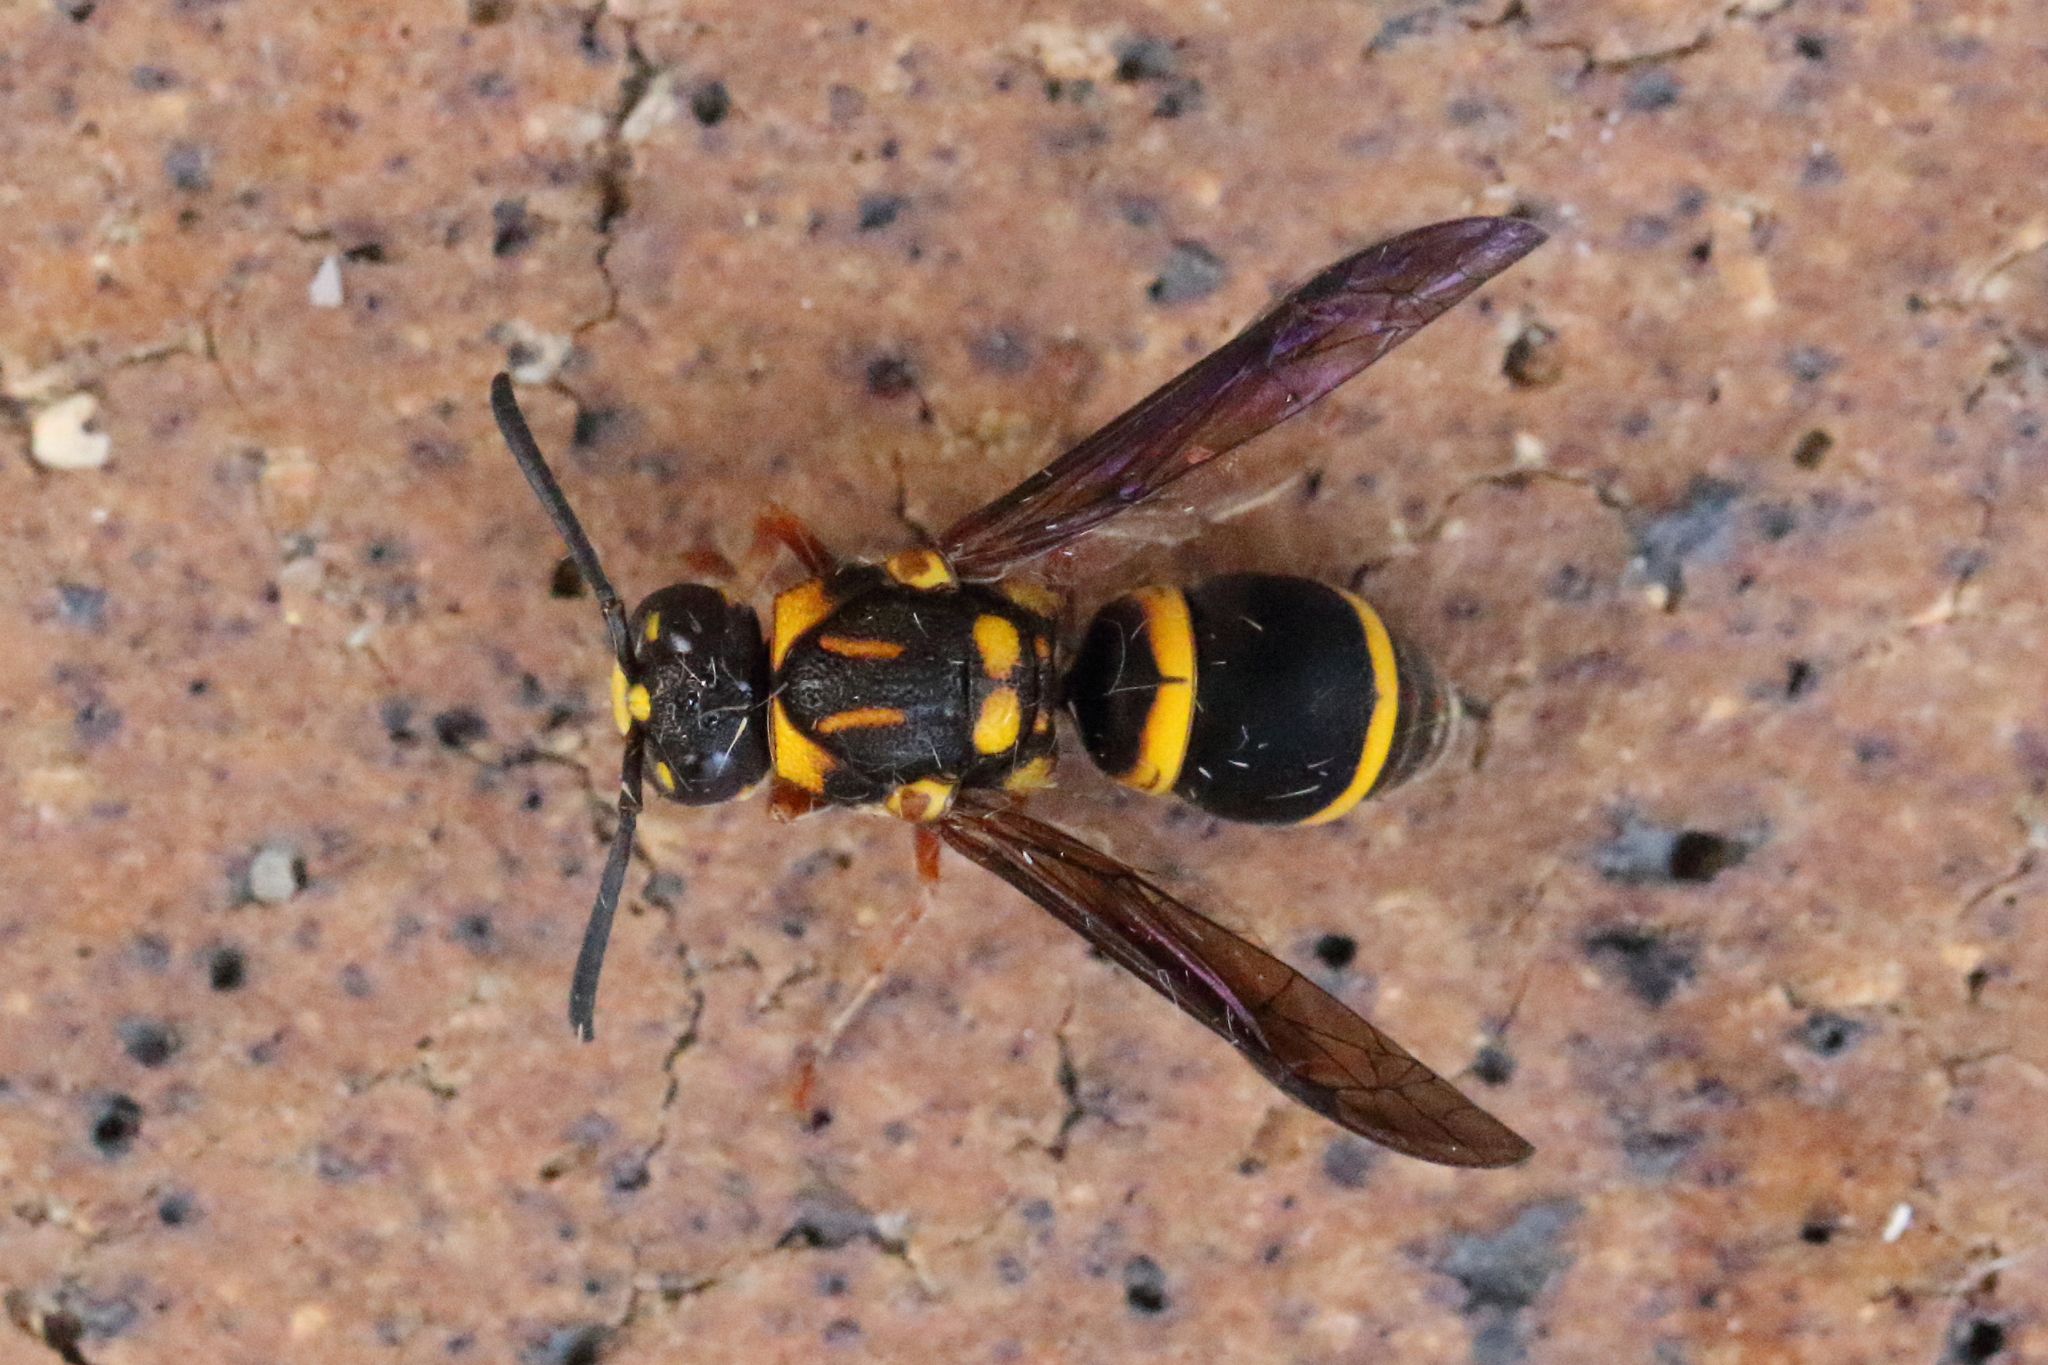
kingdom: Animalia
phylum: Arthropoda
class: Insecta
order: Hymenoptera
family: Eumenidae
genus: Euodynerus
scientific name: Euodynerus aspra
